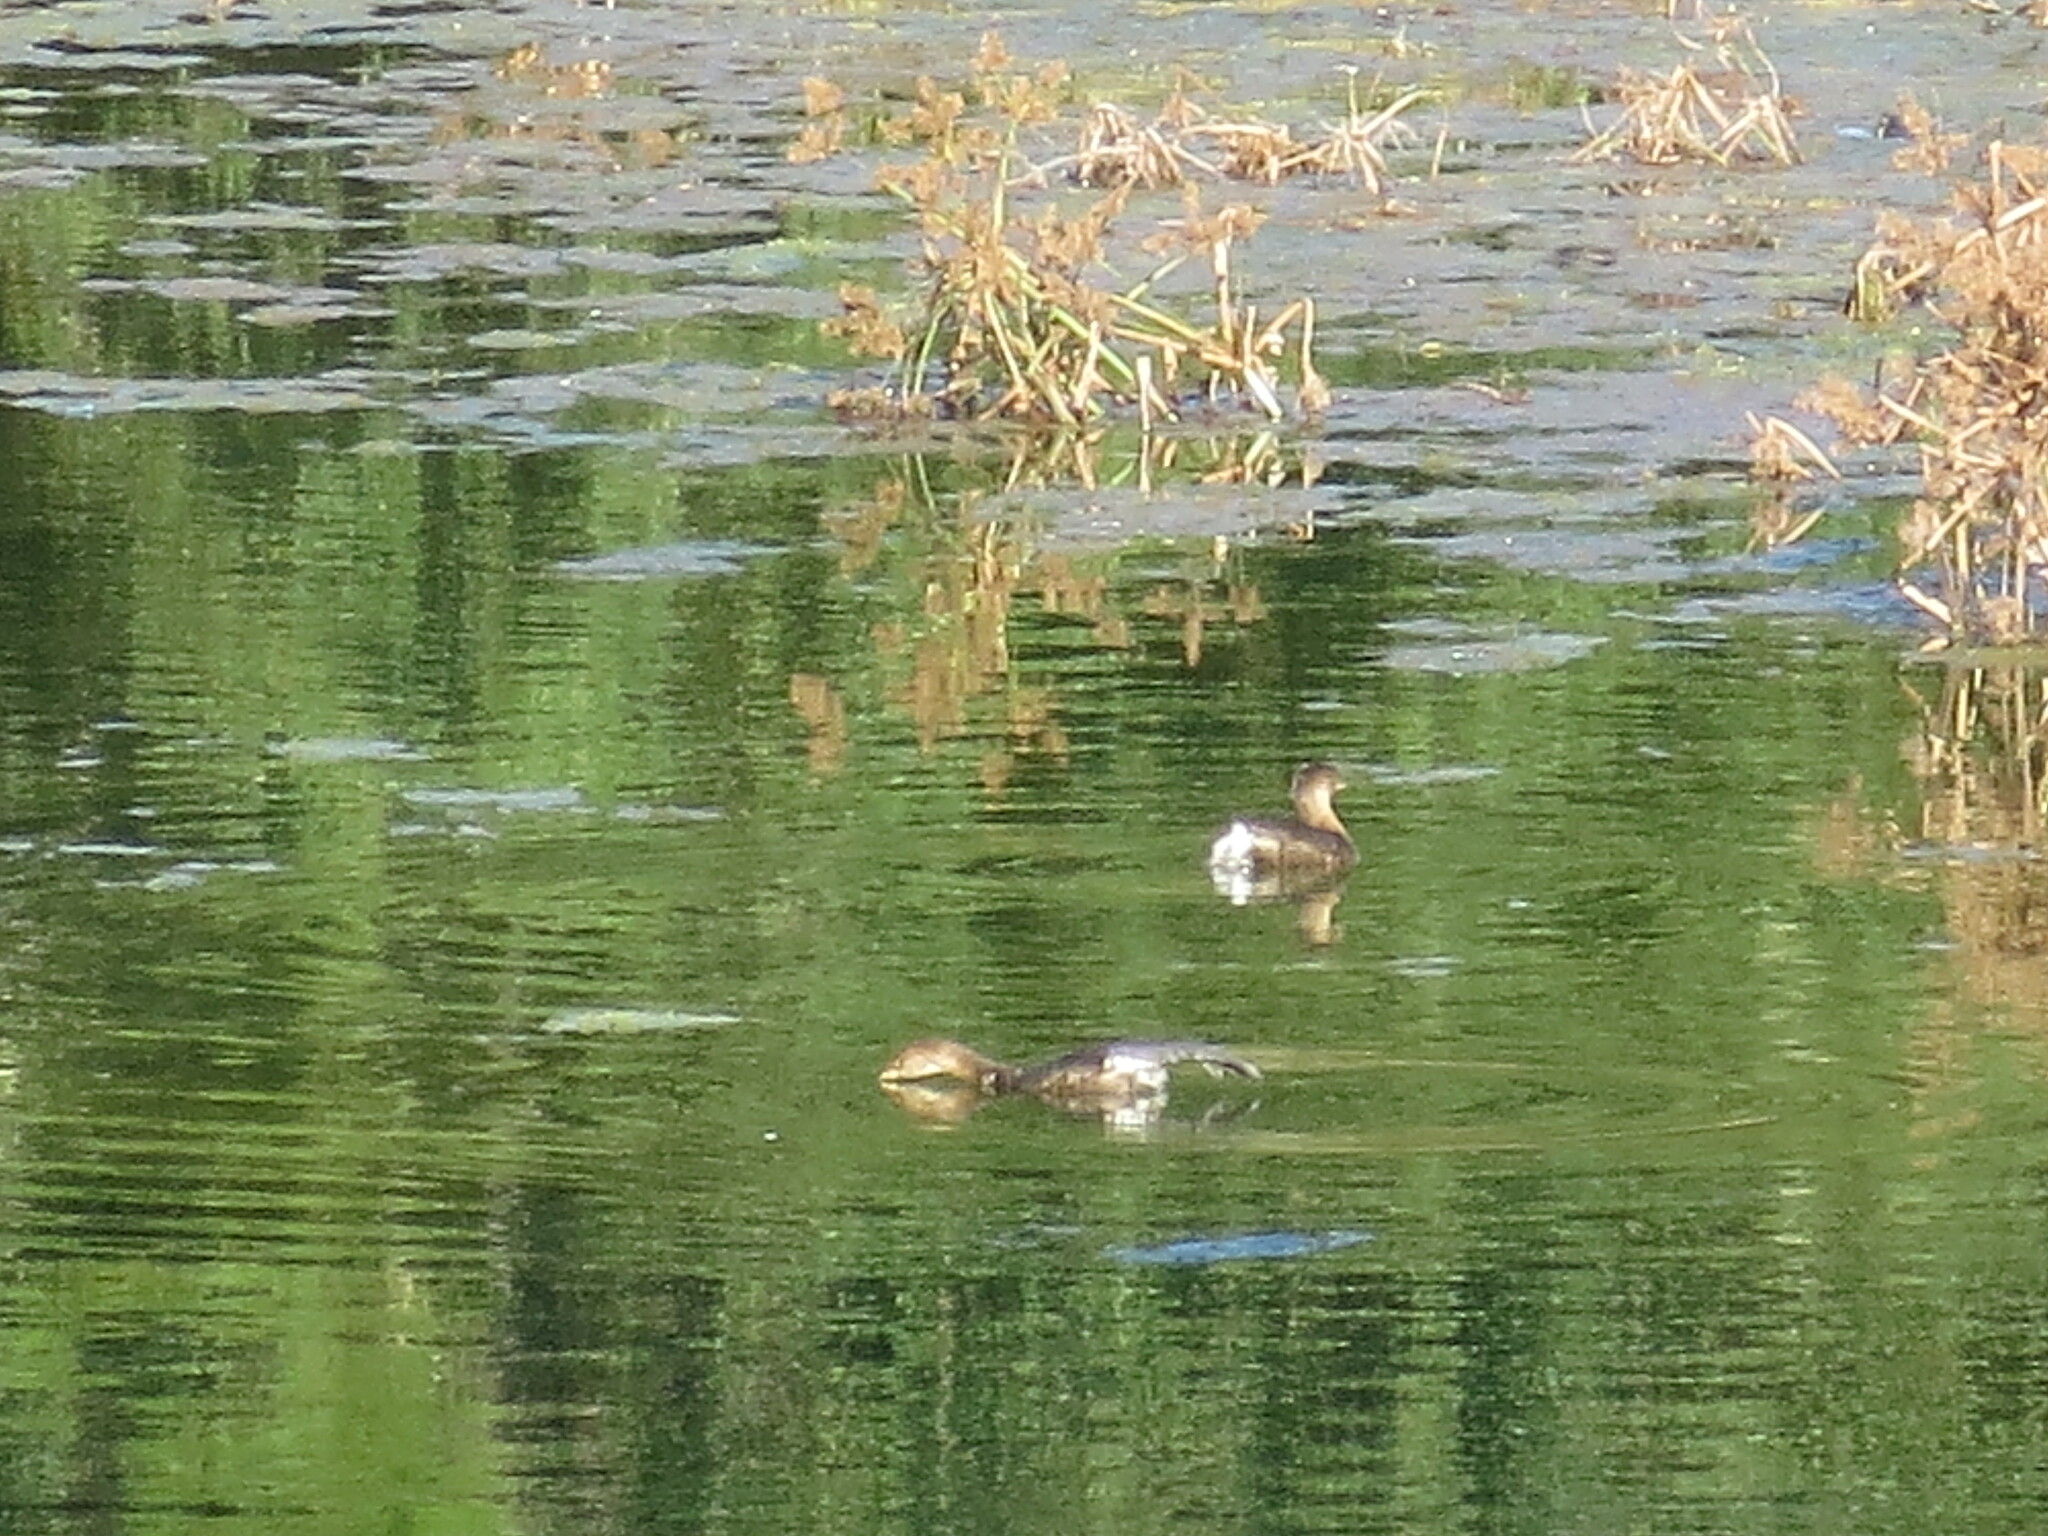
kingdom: Animalia
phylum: Chordata
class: Aves
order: Podicipediformes
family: Podicipedidae
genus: Podilymbus
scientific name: Podilymbus podiceps
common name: Pied-billed grebe
